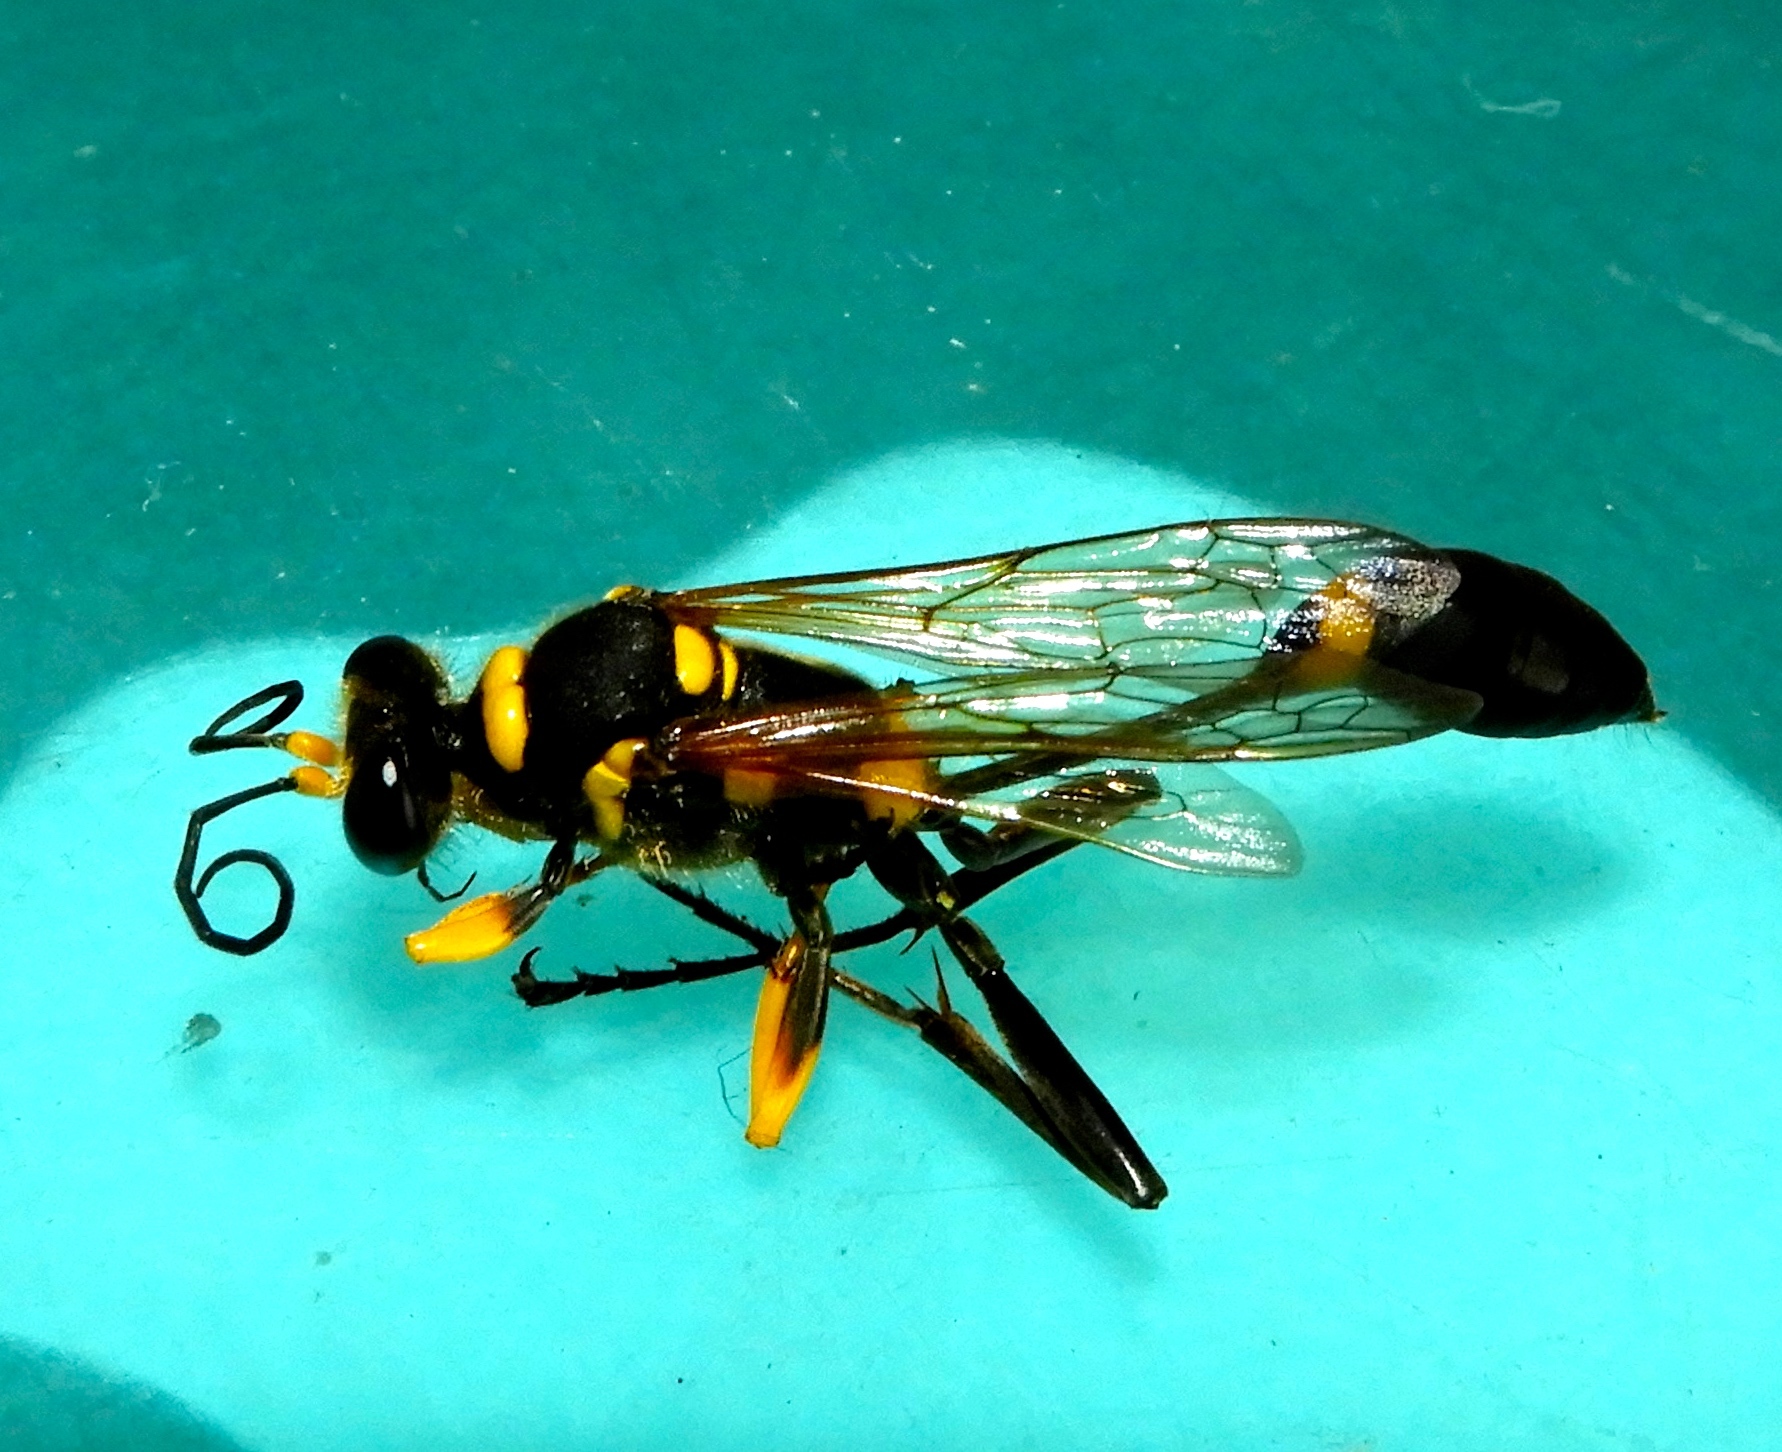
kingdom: Animalia
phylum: Arthropoda
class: Insecta
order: Hymenoptera
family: Sphecidae
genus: Sceliphron
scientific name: Sceliphron assimile
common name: Clayman's mud dauber
